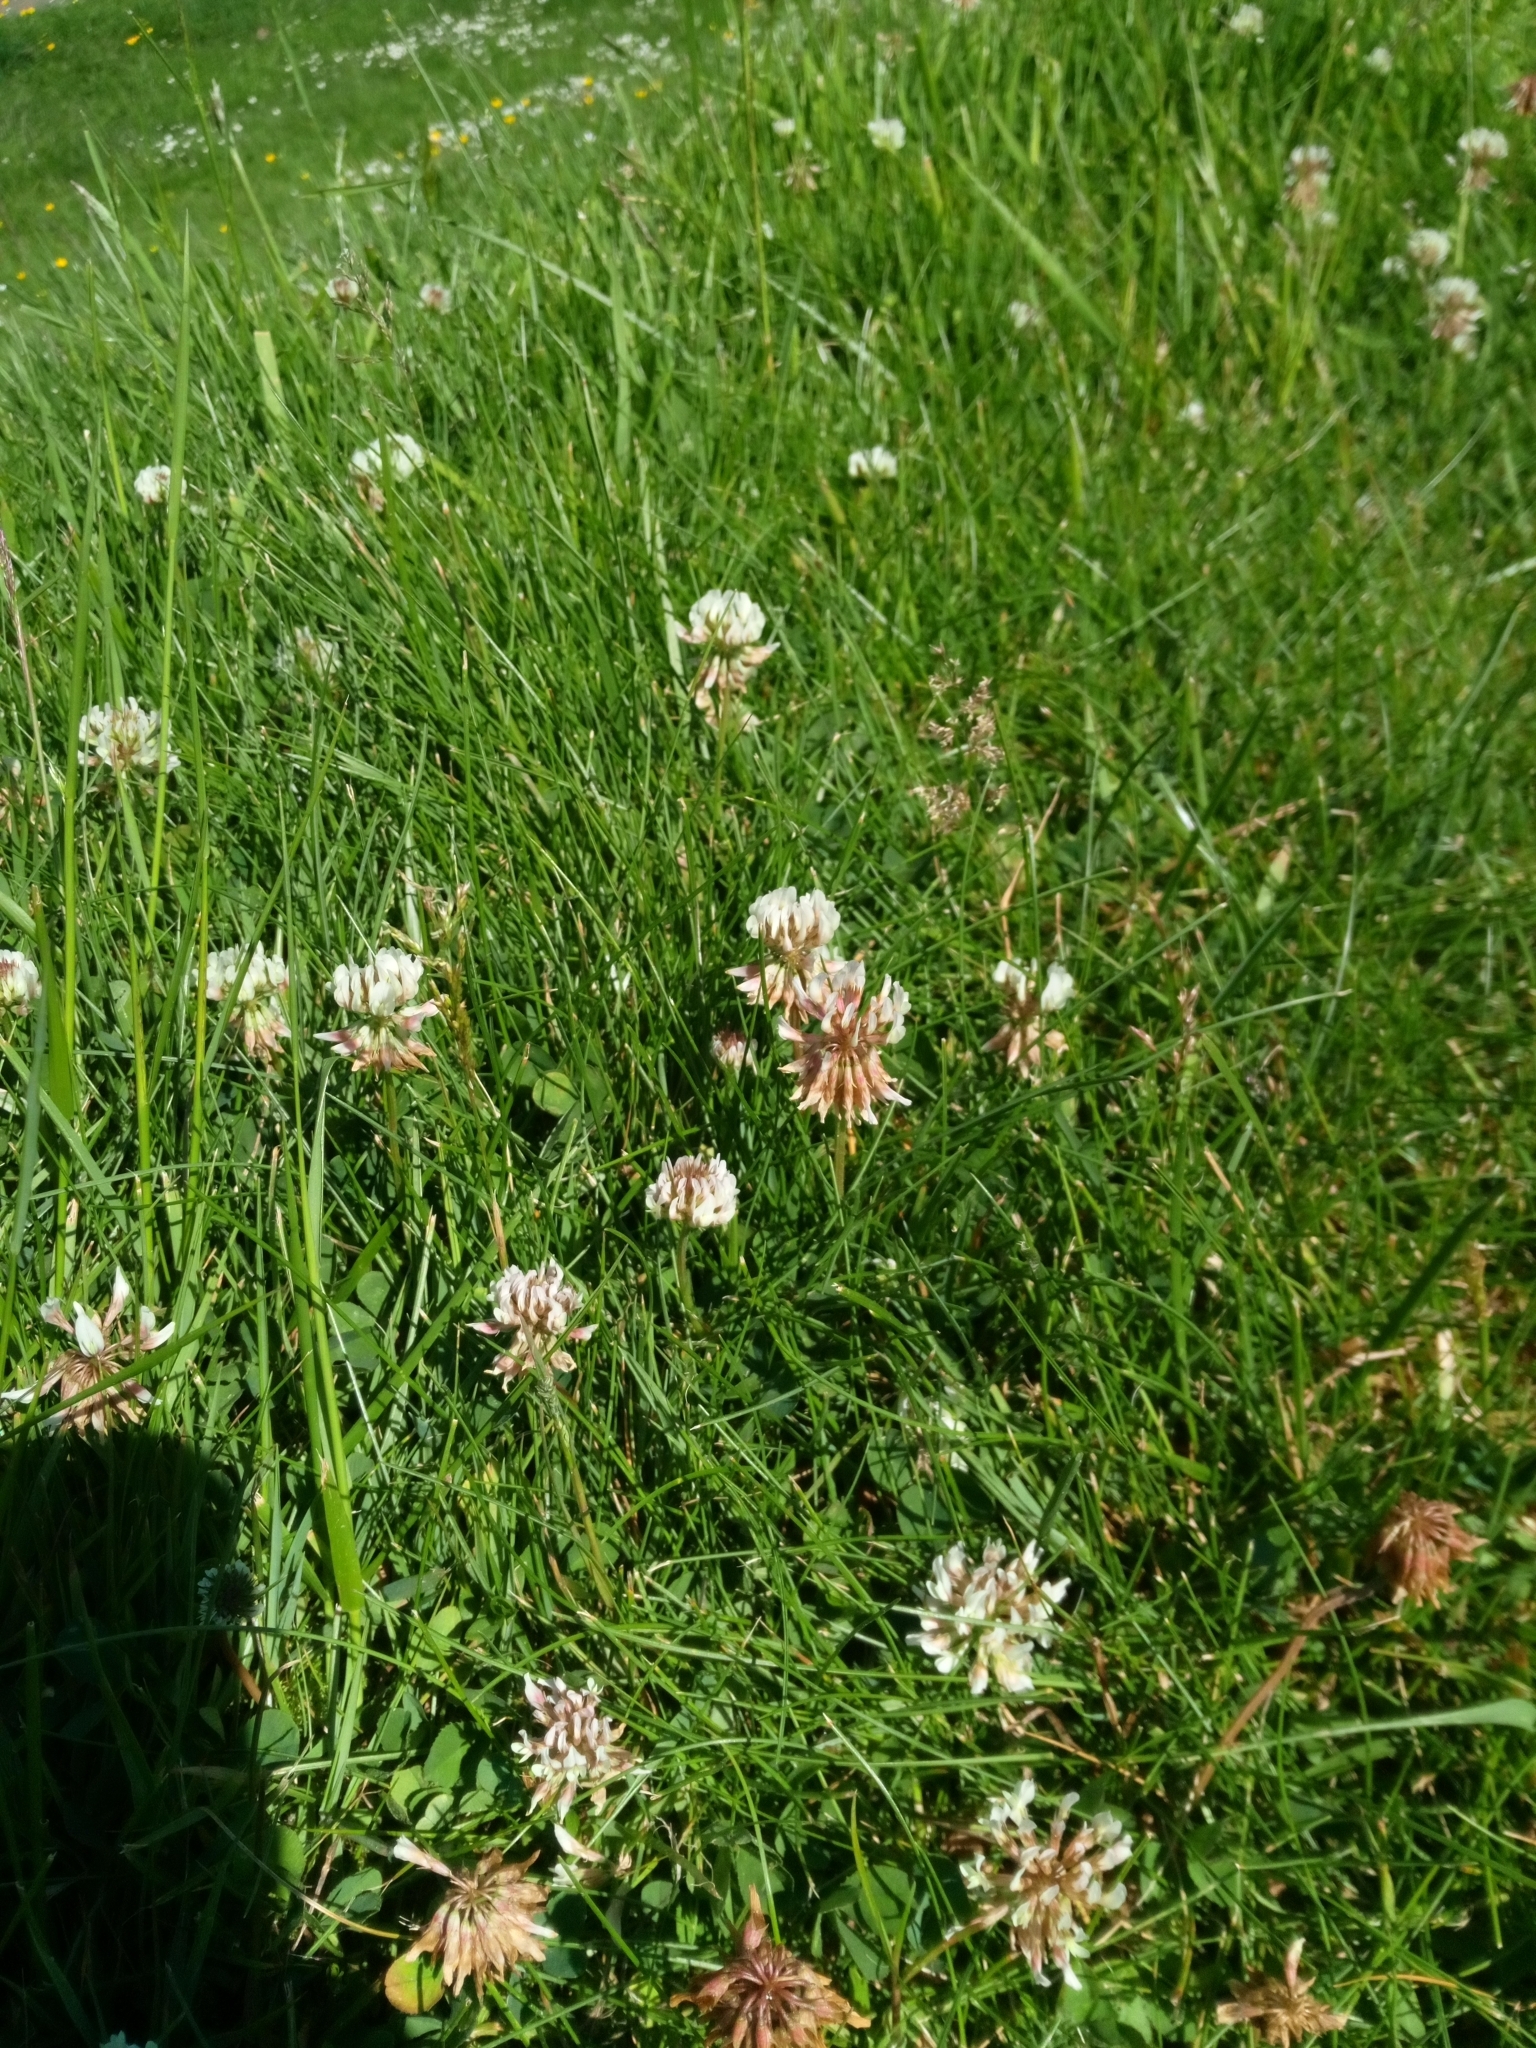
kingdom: Plantae
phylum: Tracheophyta
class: Magnoliopsida
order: Fabales
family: Fabaceae
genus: Trifolium
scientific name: Trifolium repens
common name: White clover
